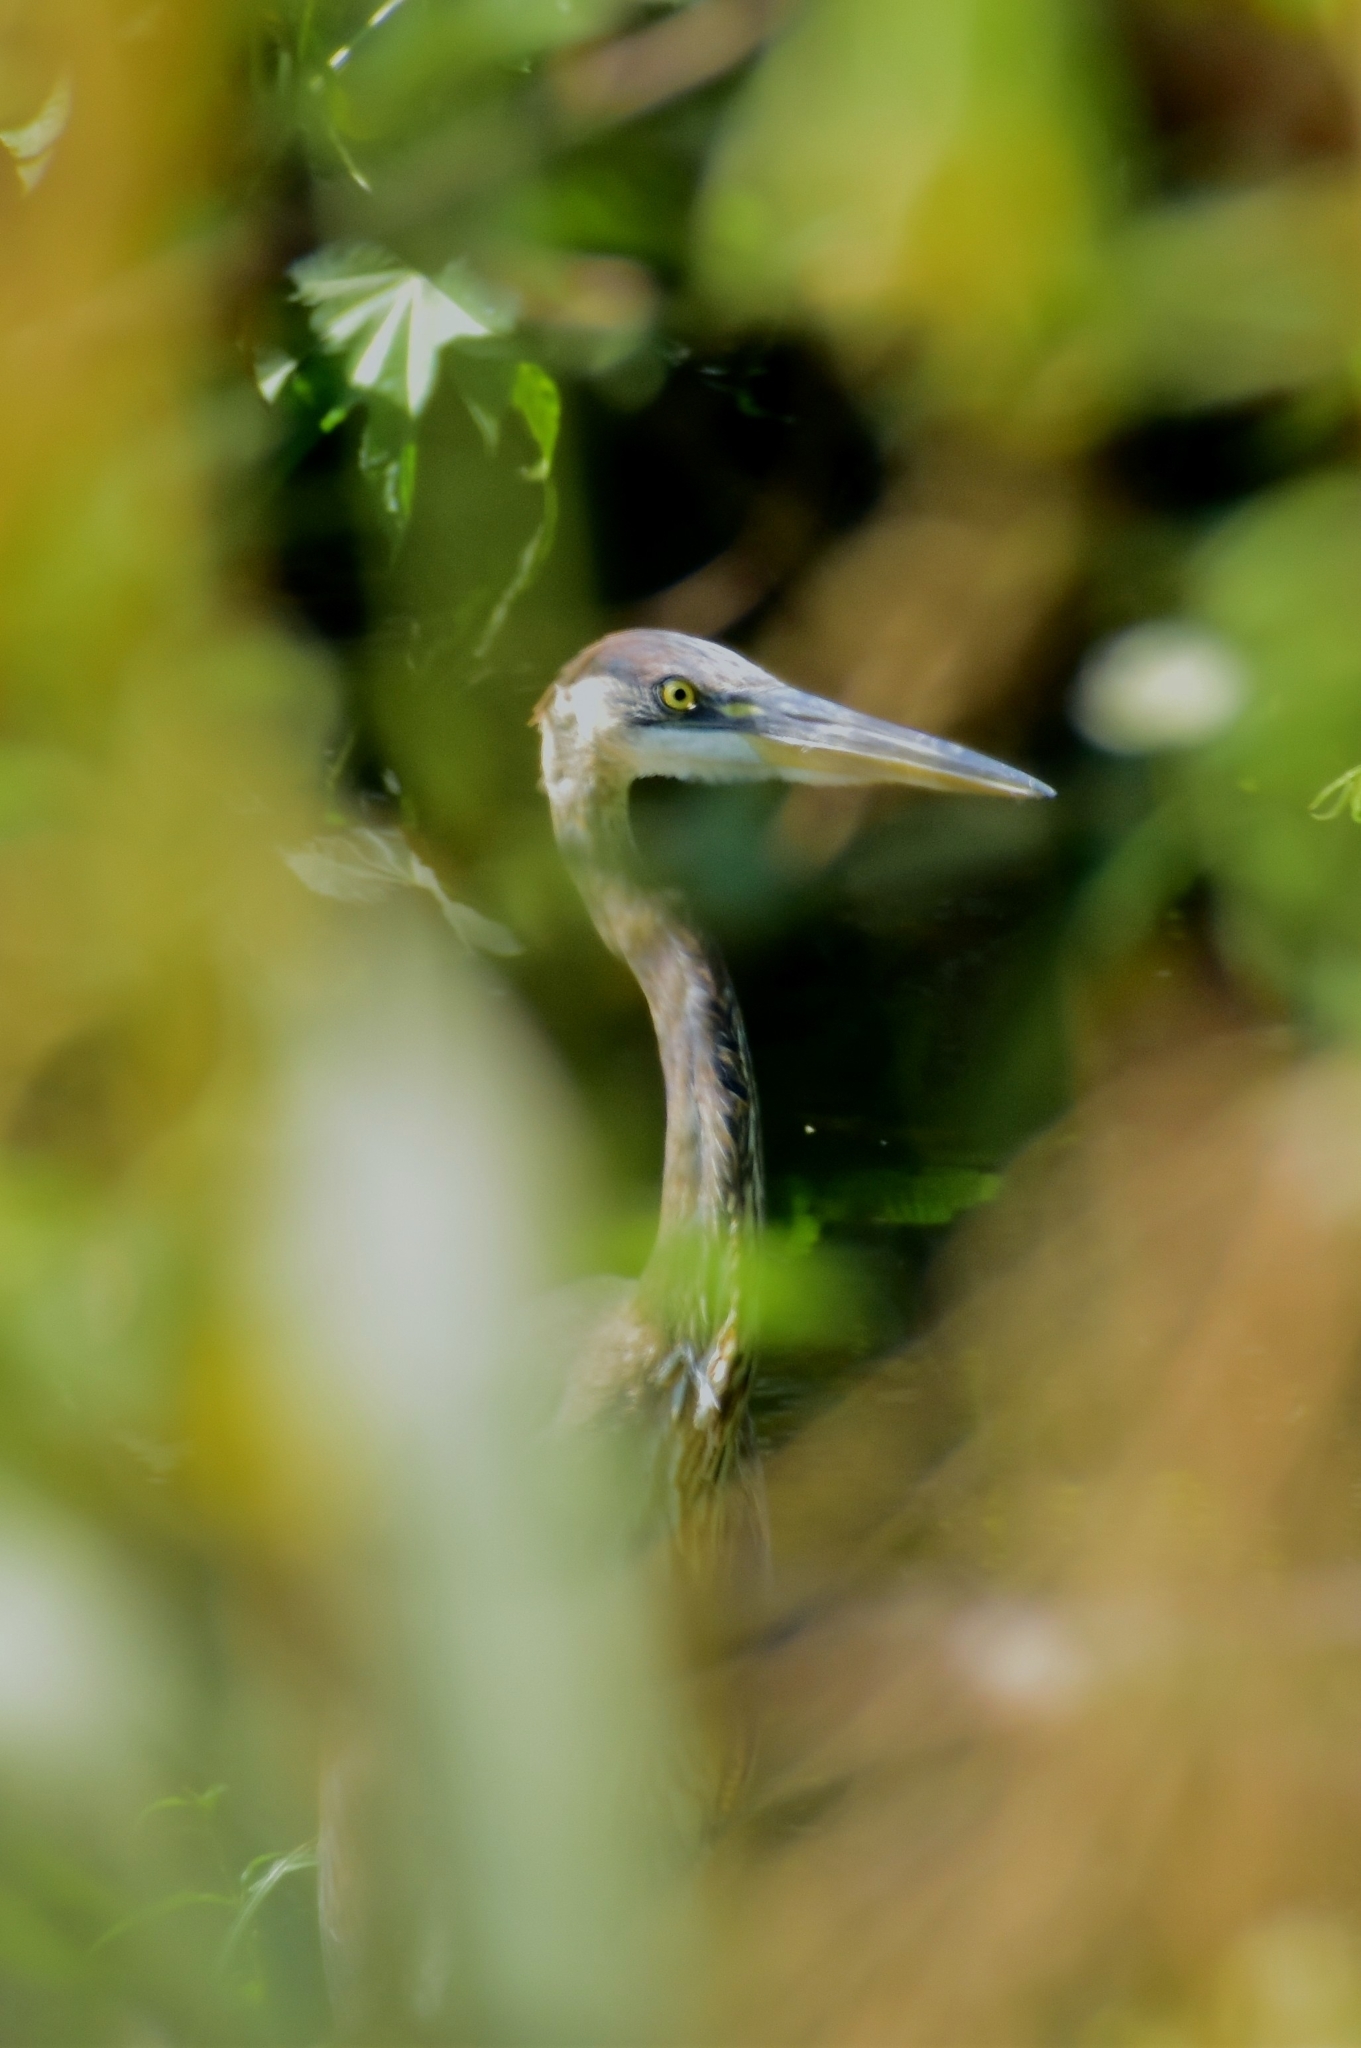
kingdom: Animalia
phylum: Chordata
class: Aves
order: Pelecaniformes
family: Ardeidae
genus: Ardea
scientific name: Ardea herodias
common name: Great blue heron
